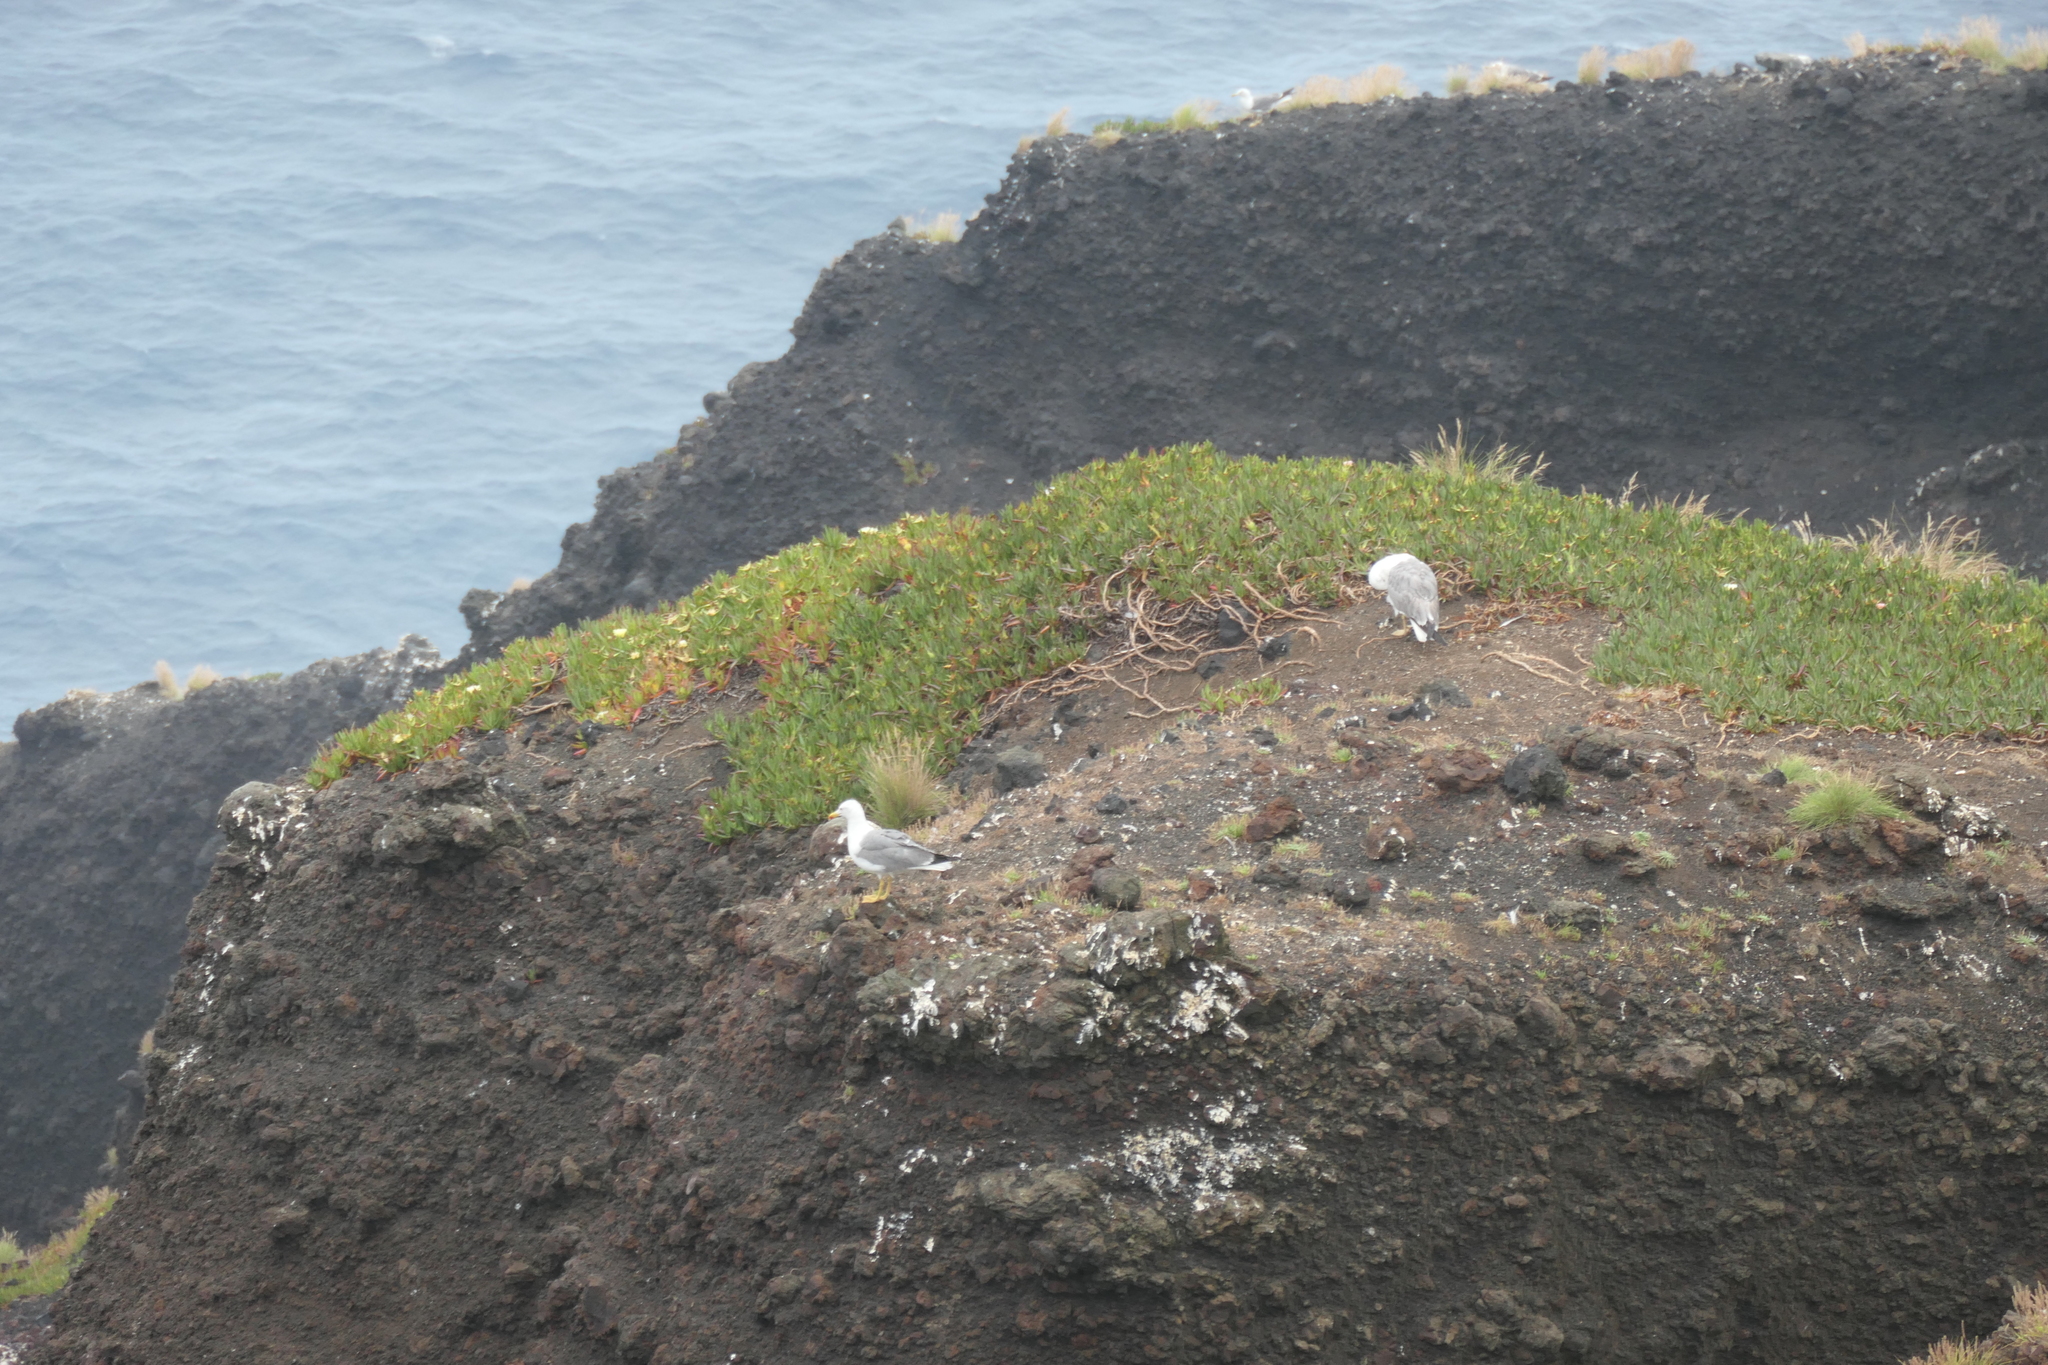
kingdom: Animalia
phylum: Chordata
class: Aves
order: Charadriiformes
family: Laridae
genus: Larus
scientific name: Larus michahellis
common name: Yellow-legged gull
